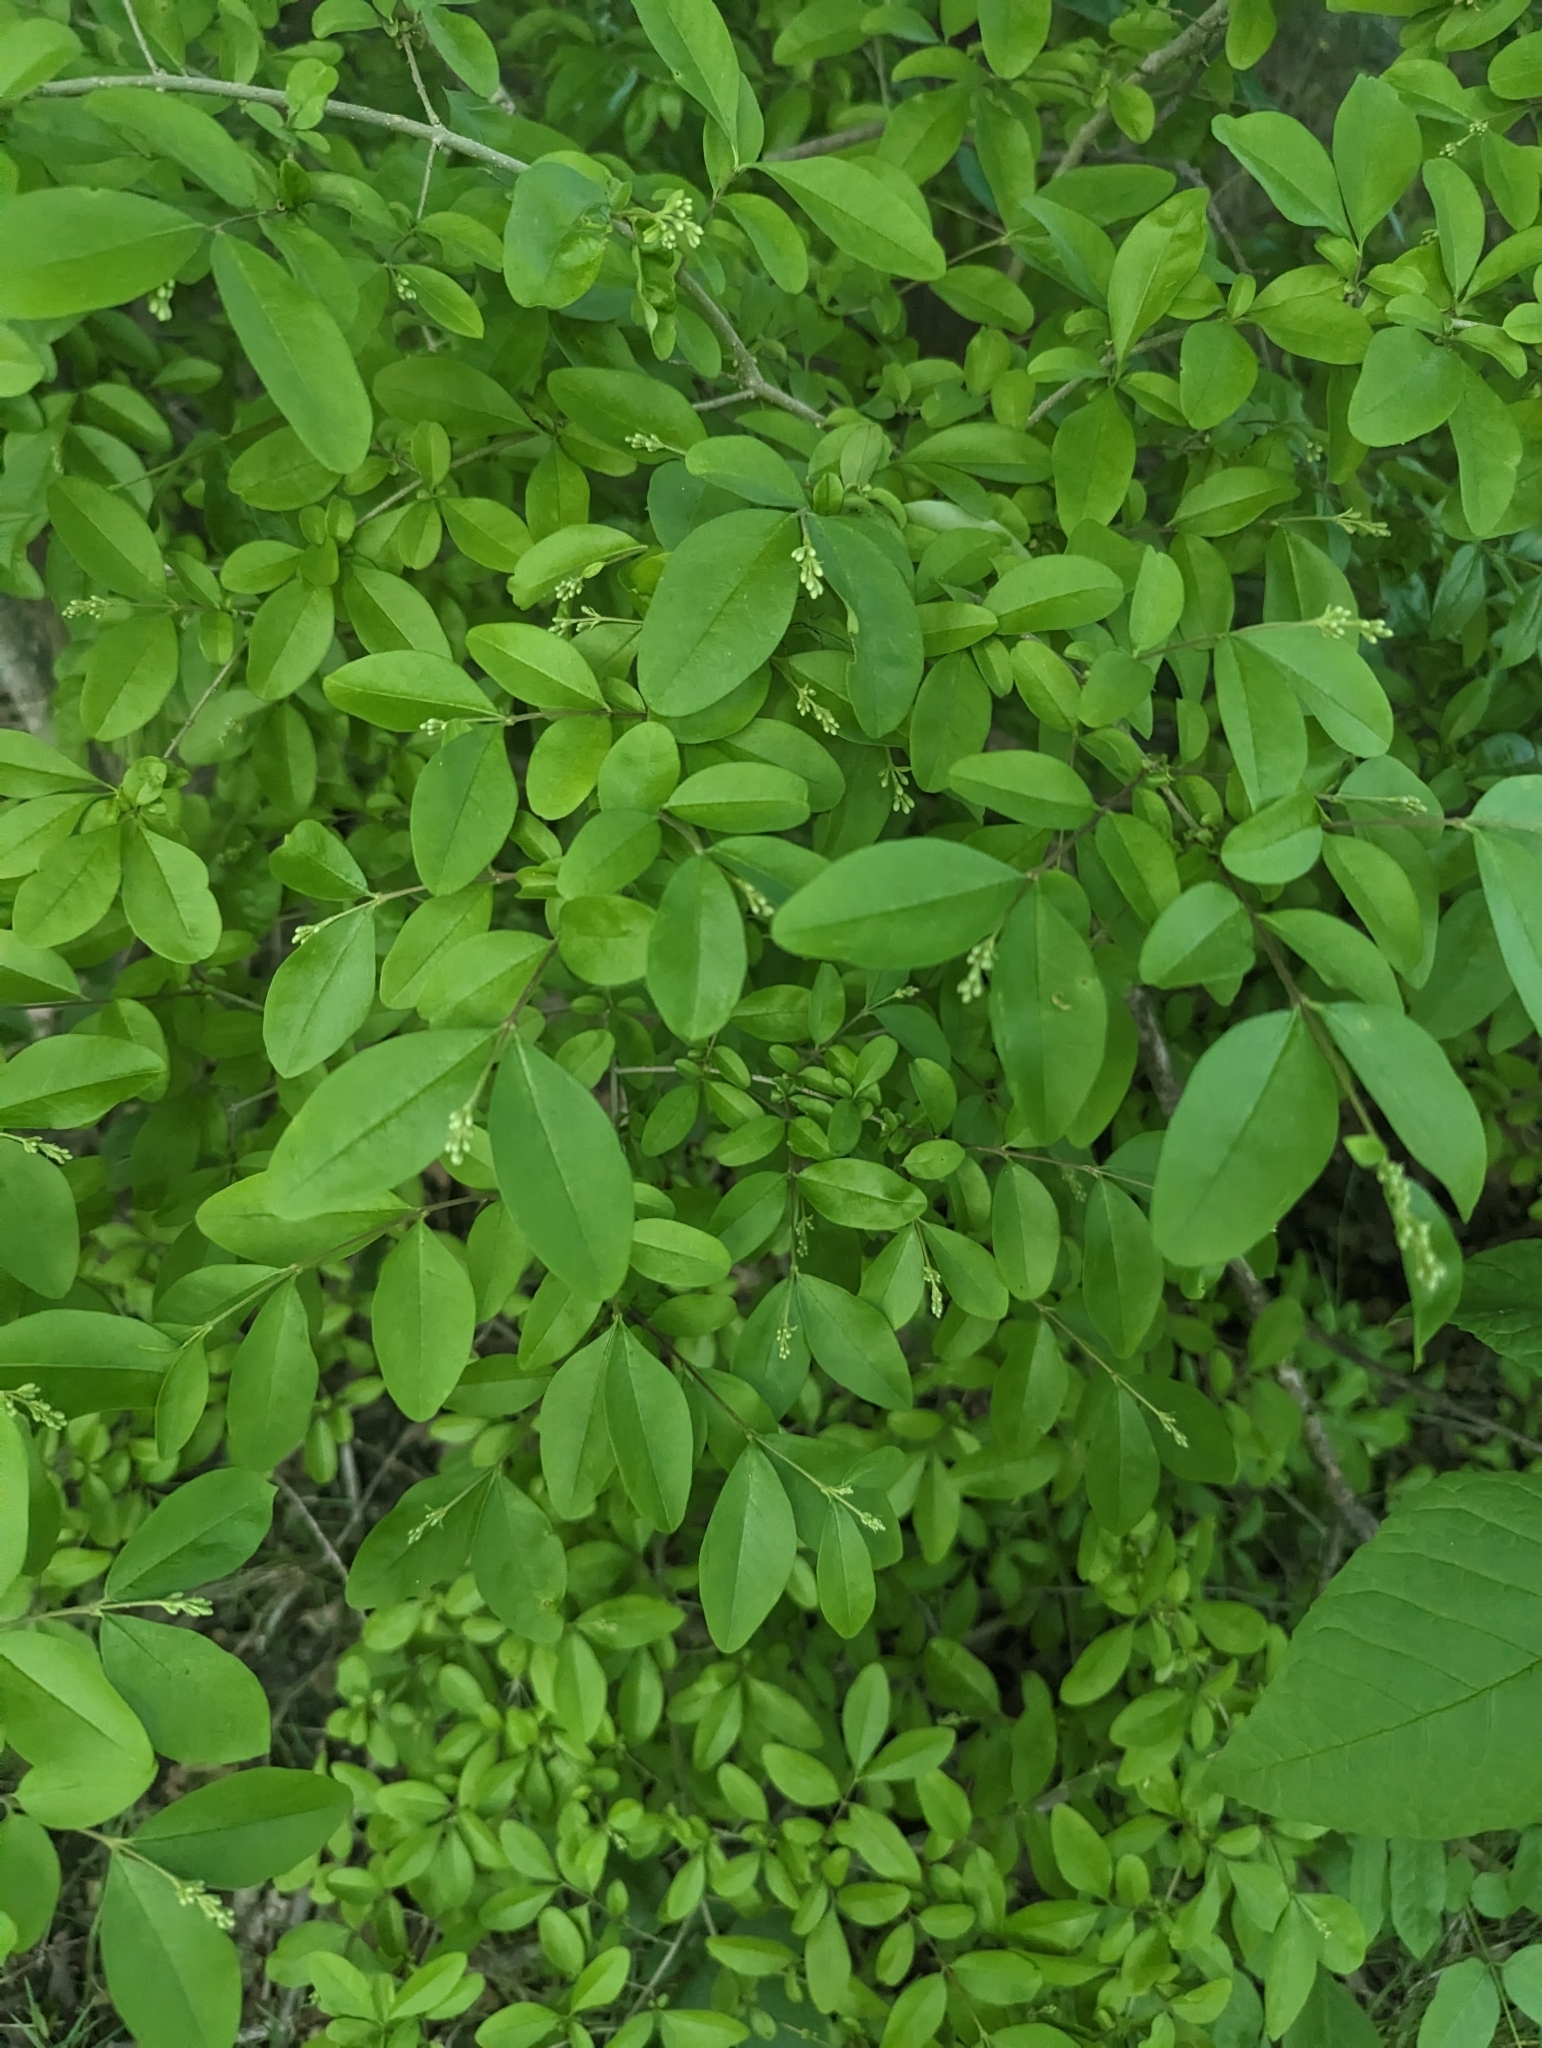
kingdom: Plantae
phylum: Tracheophyta
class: Magnoliopsida
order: Lamiales
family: Oleaceae
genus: Ligustrum
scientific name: Ligustrum obtusifolium
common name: Border privet
